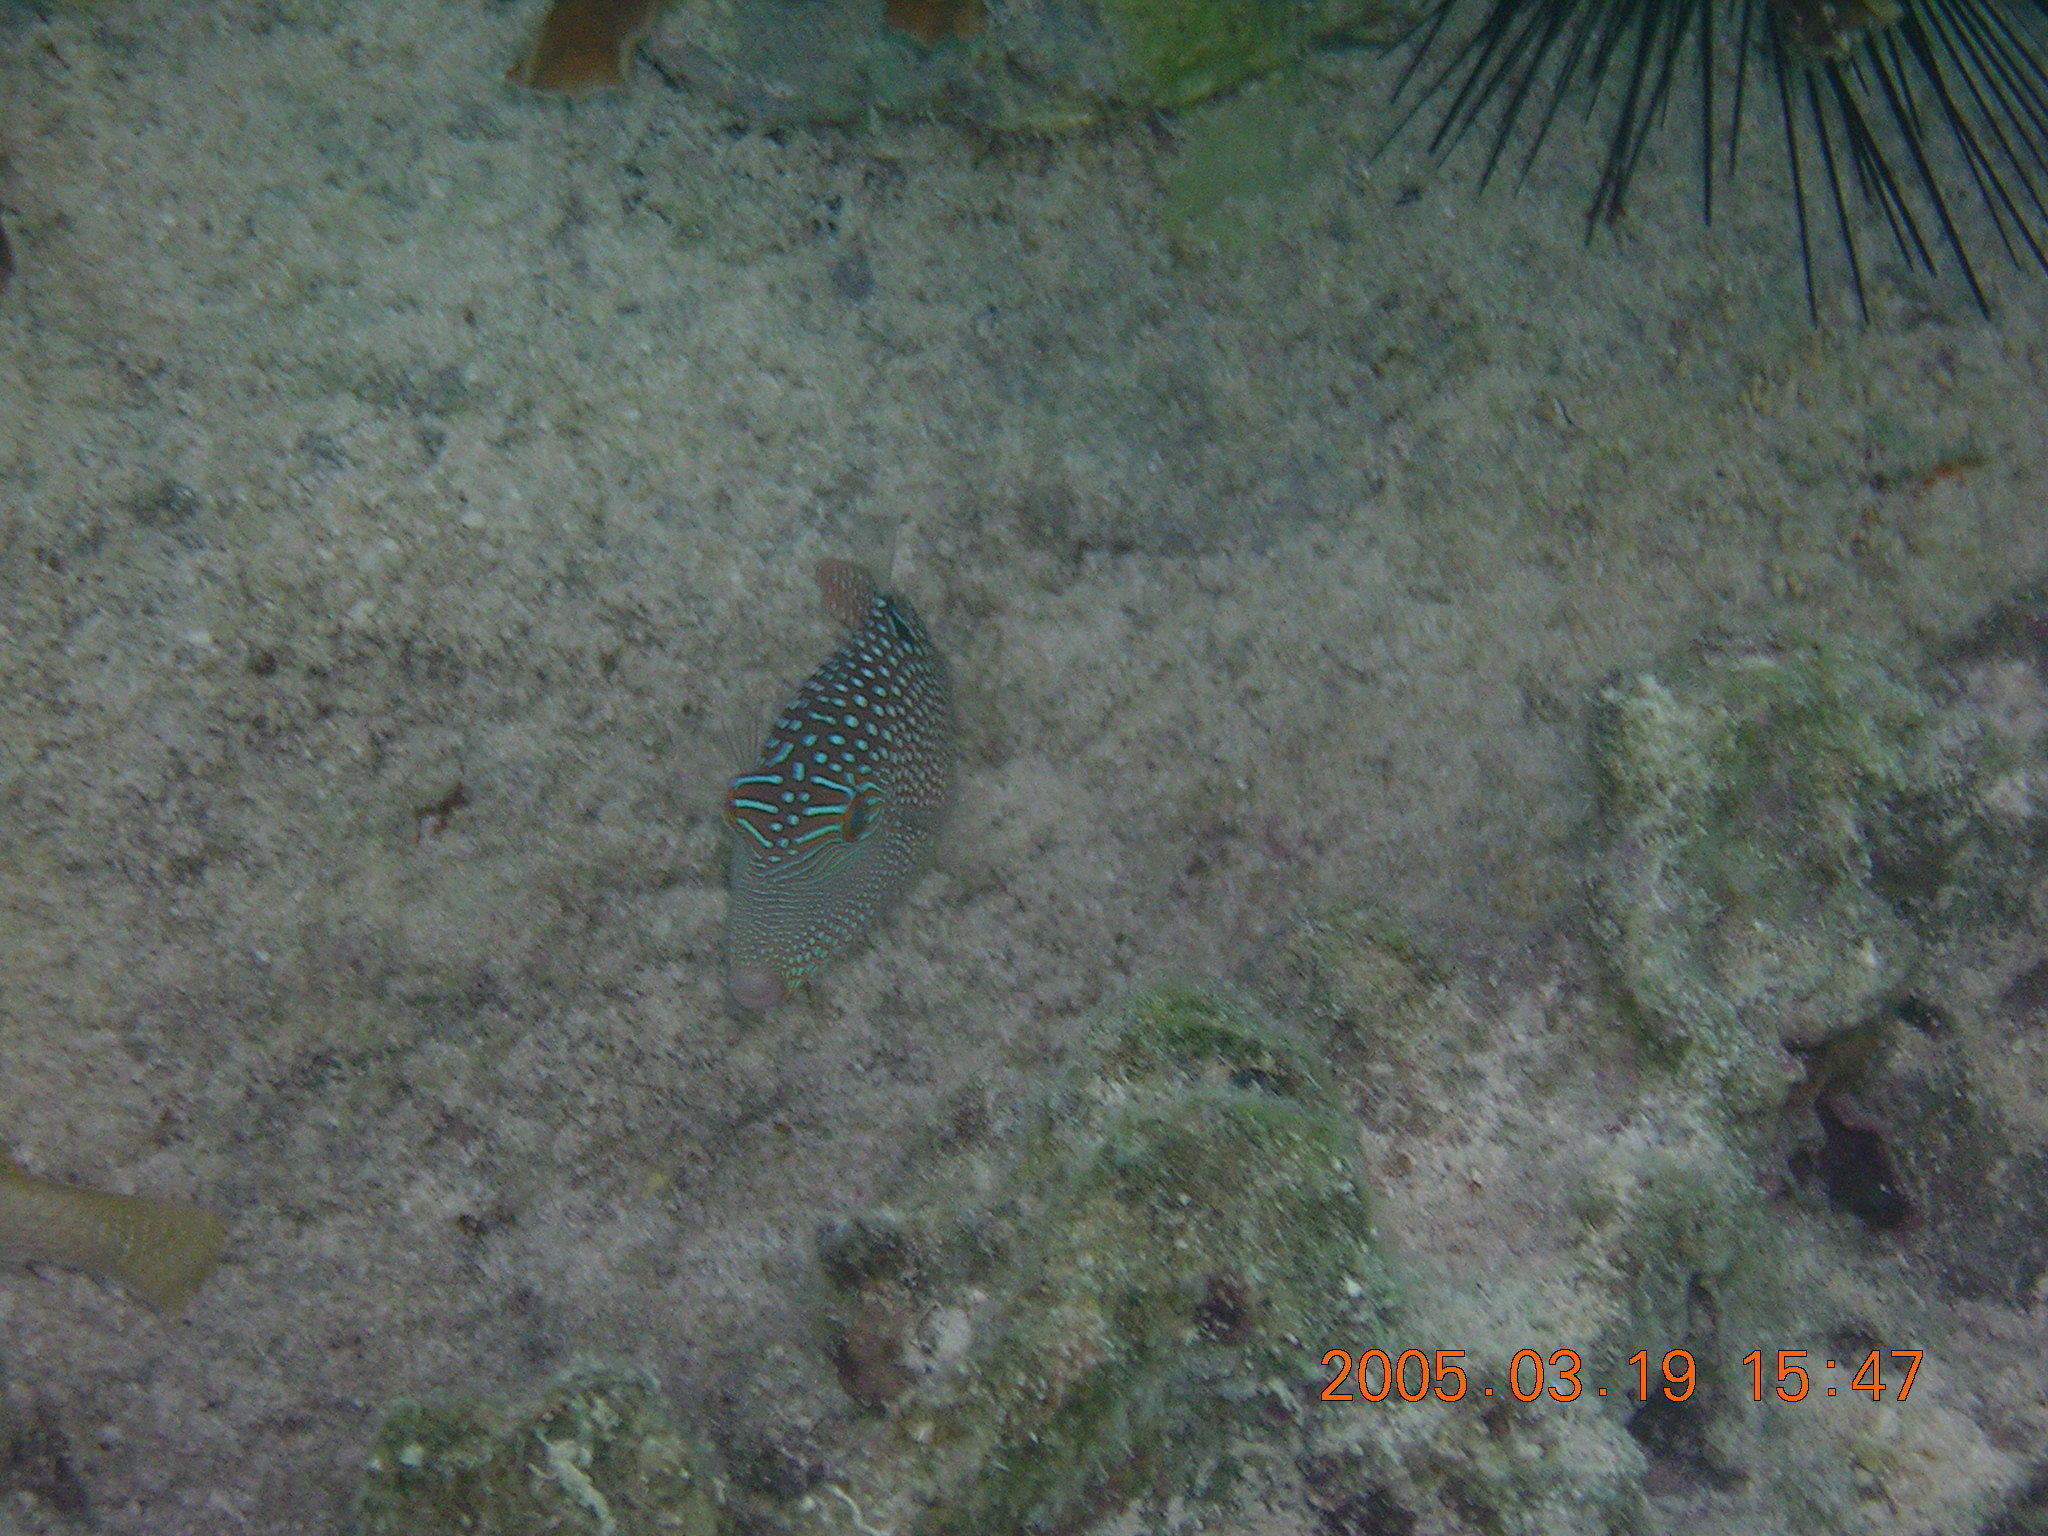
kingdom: Animalia
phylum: Chordata
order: Tetraodontiformes
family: Tetraodontidae
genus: Canthigaster
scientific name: Canthigaster solandri
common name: False-eye toby
